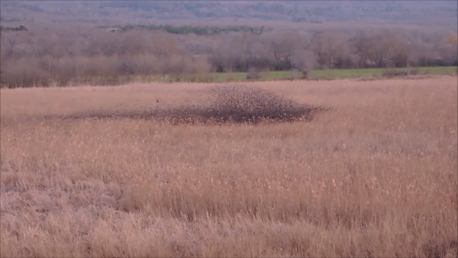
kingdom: Animalia
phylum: Chordata
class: Aves
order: Passeriformes
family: Sturnidae
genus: Sturnus
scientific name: Sturnus vulgaris
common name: Common starling
